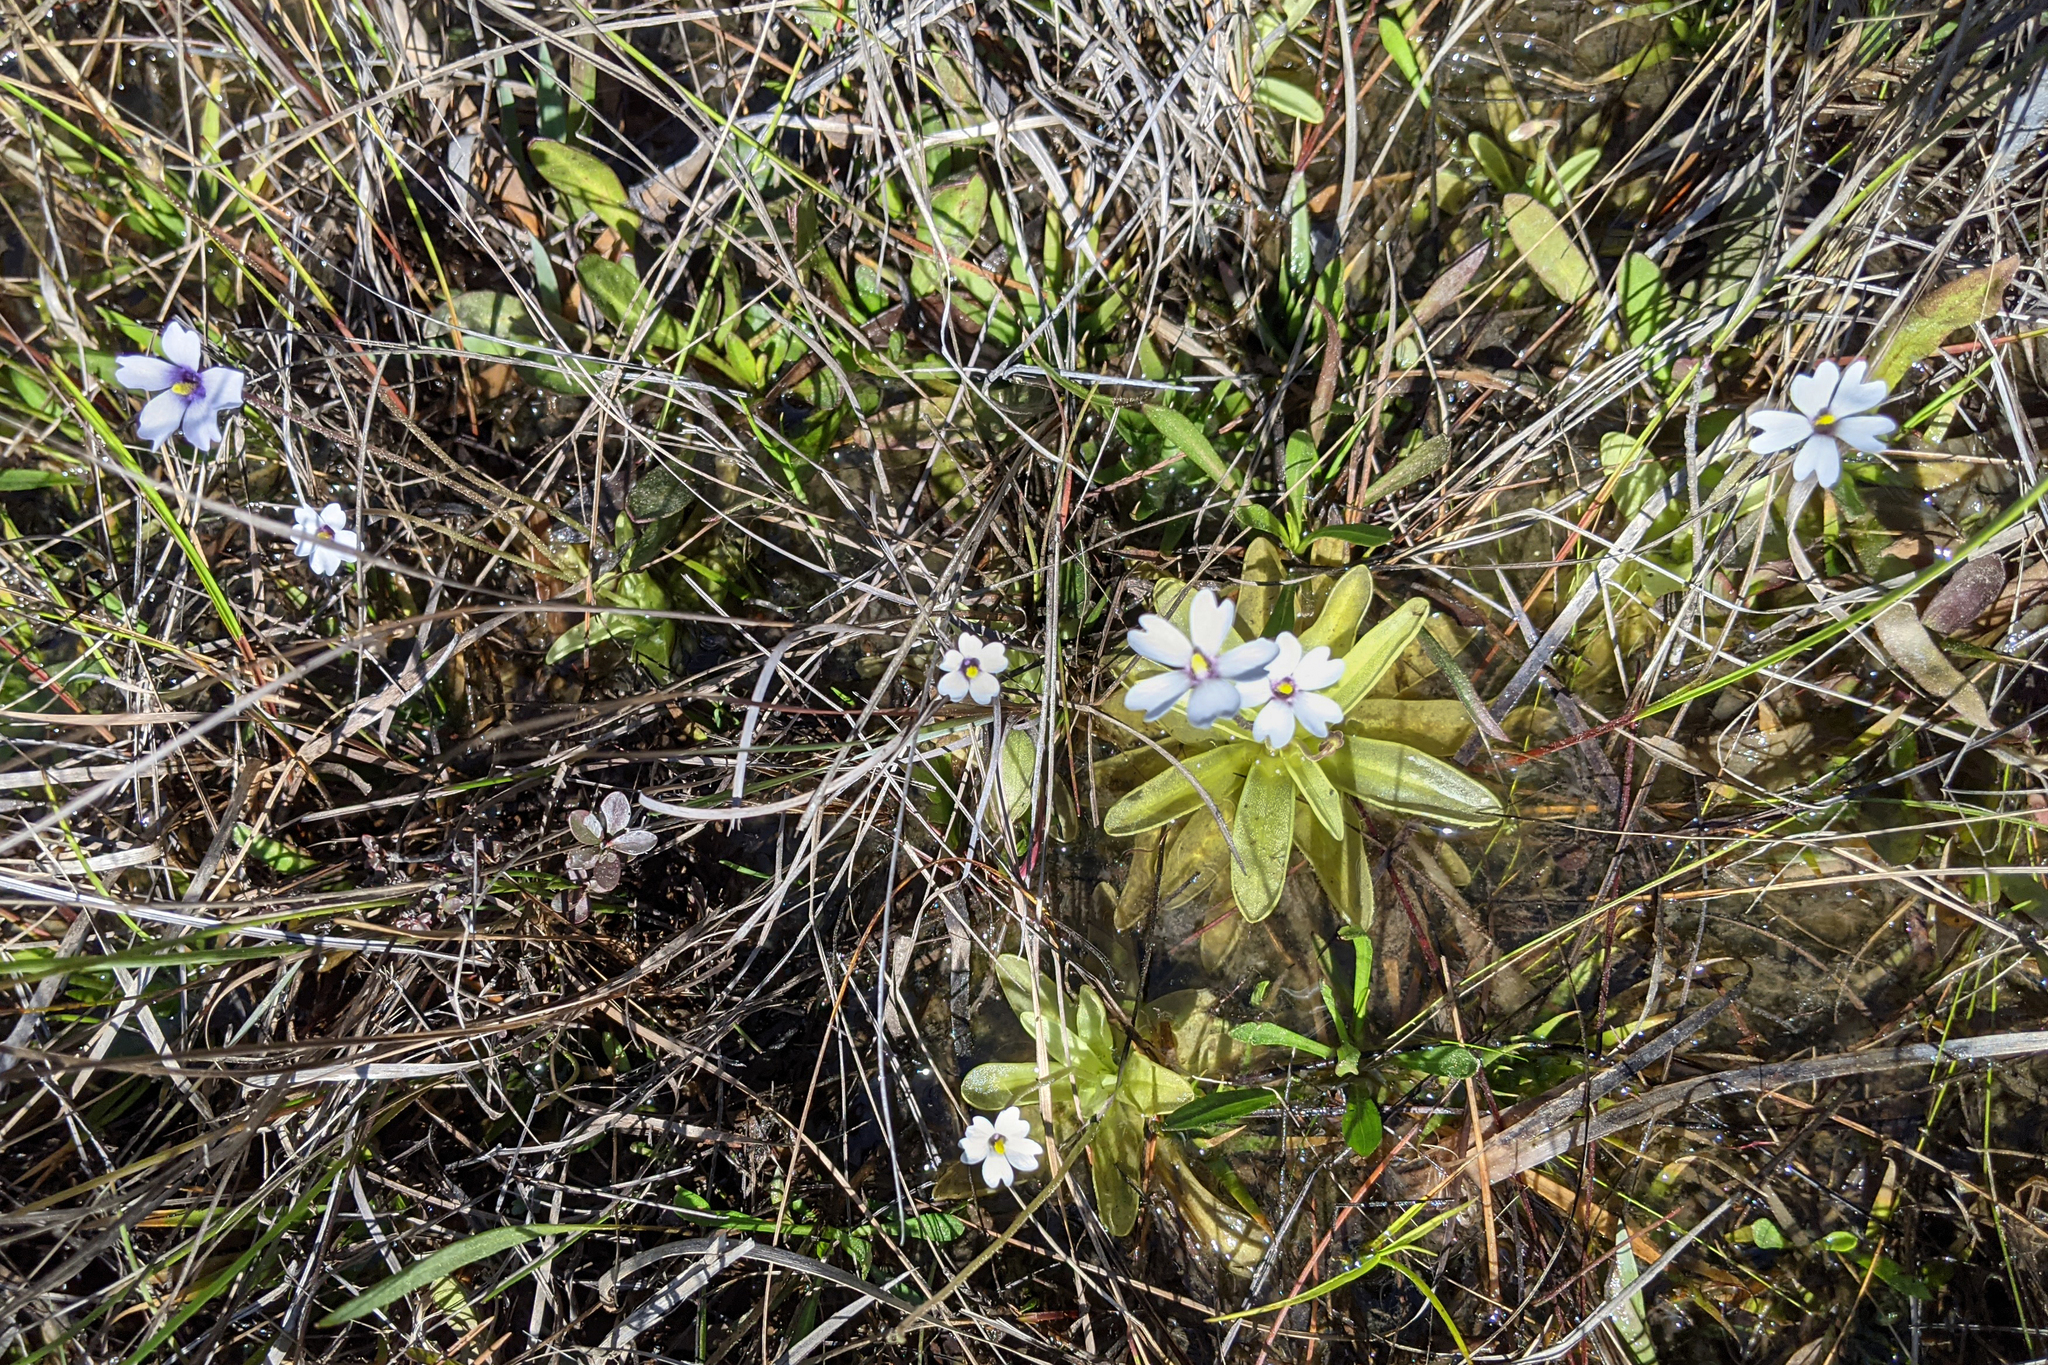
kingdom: Plantae
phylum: Tracheophyta
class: Magnoliopsida
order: Lamiales
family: Lentibulariaceae
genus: Pinguicula
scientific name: Pinguicula ionantha
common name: Godfrey's butterwort
